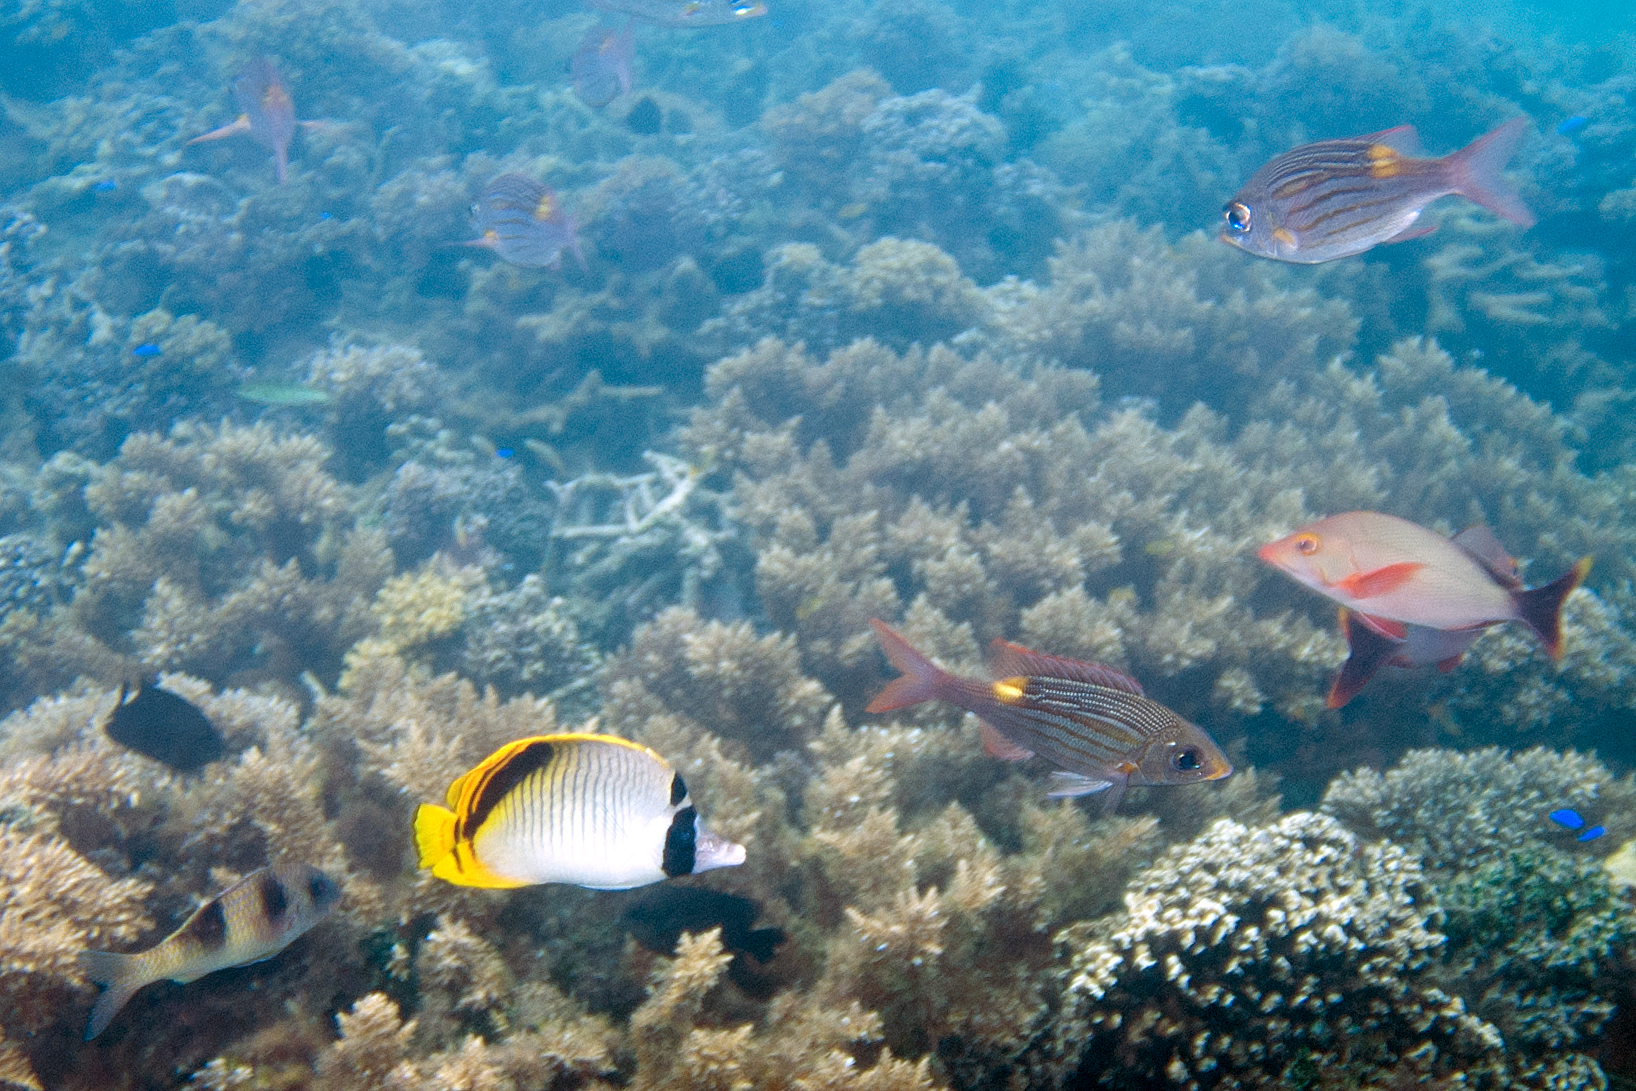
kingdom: Animalia
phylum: Chordata
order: Perciformes
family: Chaetodontidae
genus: Chaetodon
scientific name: Chaetodon oxycephalus
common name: Spot-nape butterflyfish
